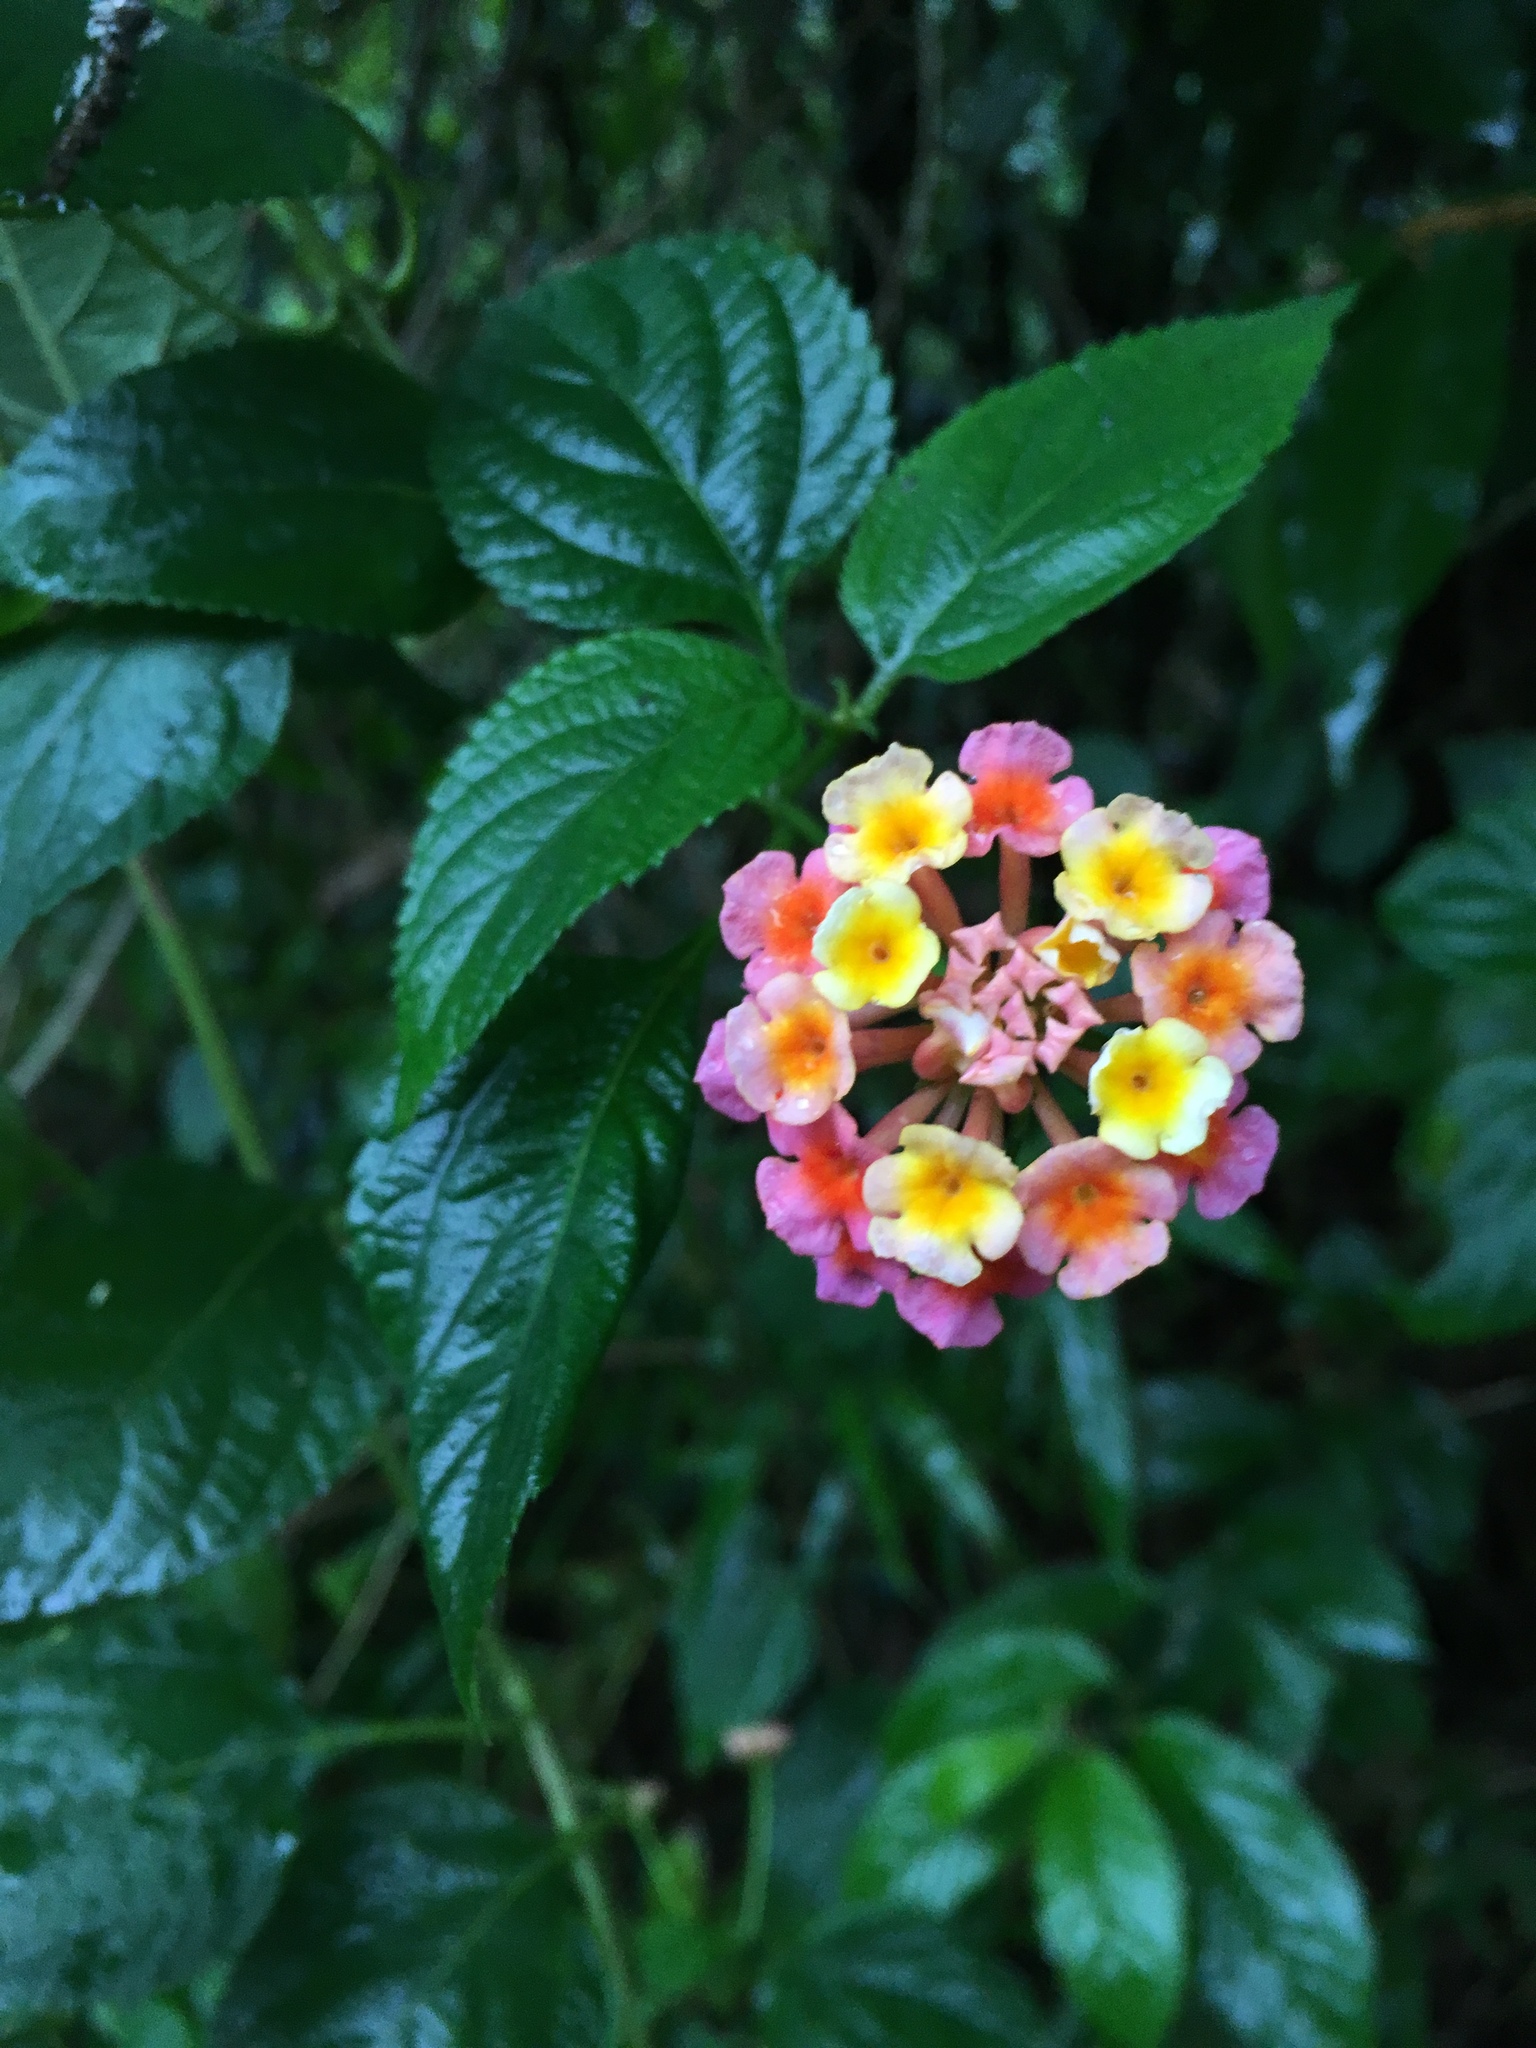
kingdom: Plantae
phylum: Tracheophyta
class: Magnoliopsida
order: Lamiales
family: Verbenaceae
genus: Lantana
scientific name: Lantana camara
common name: Lantana
